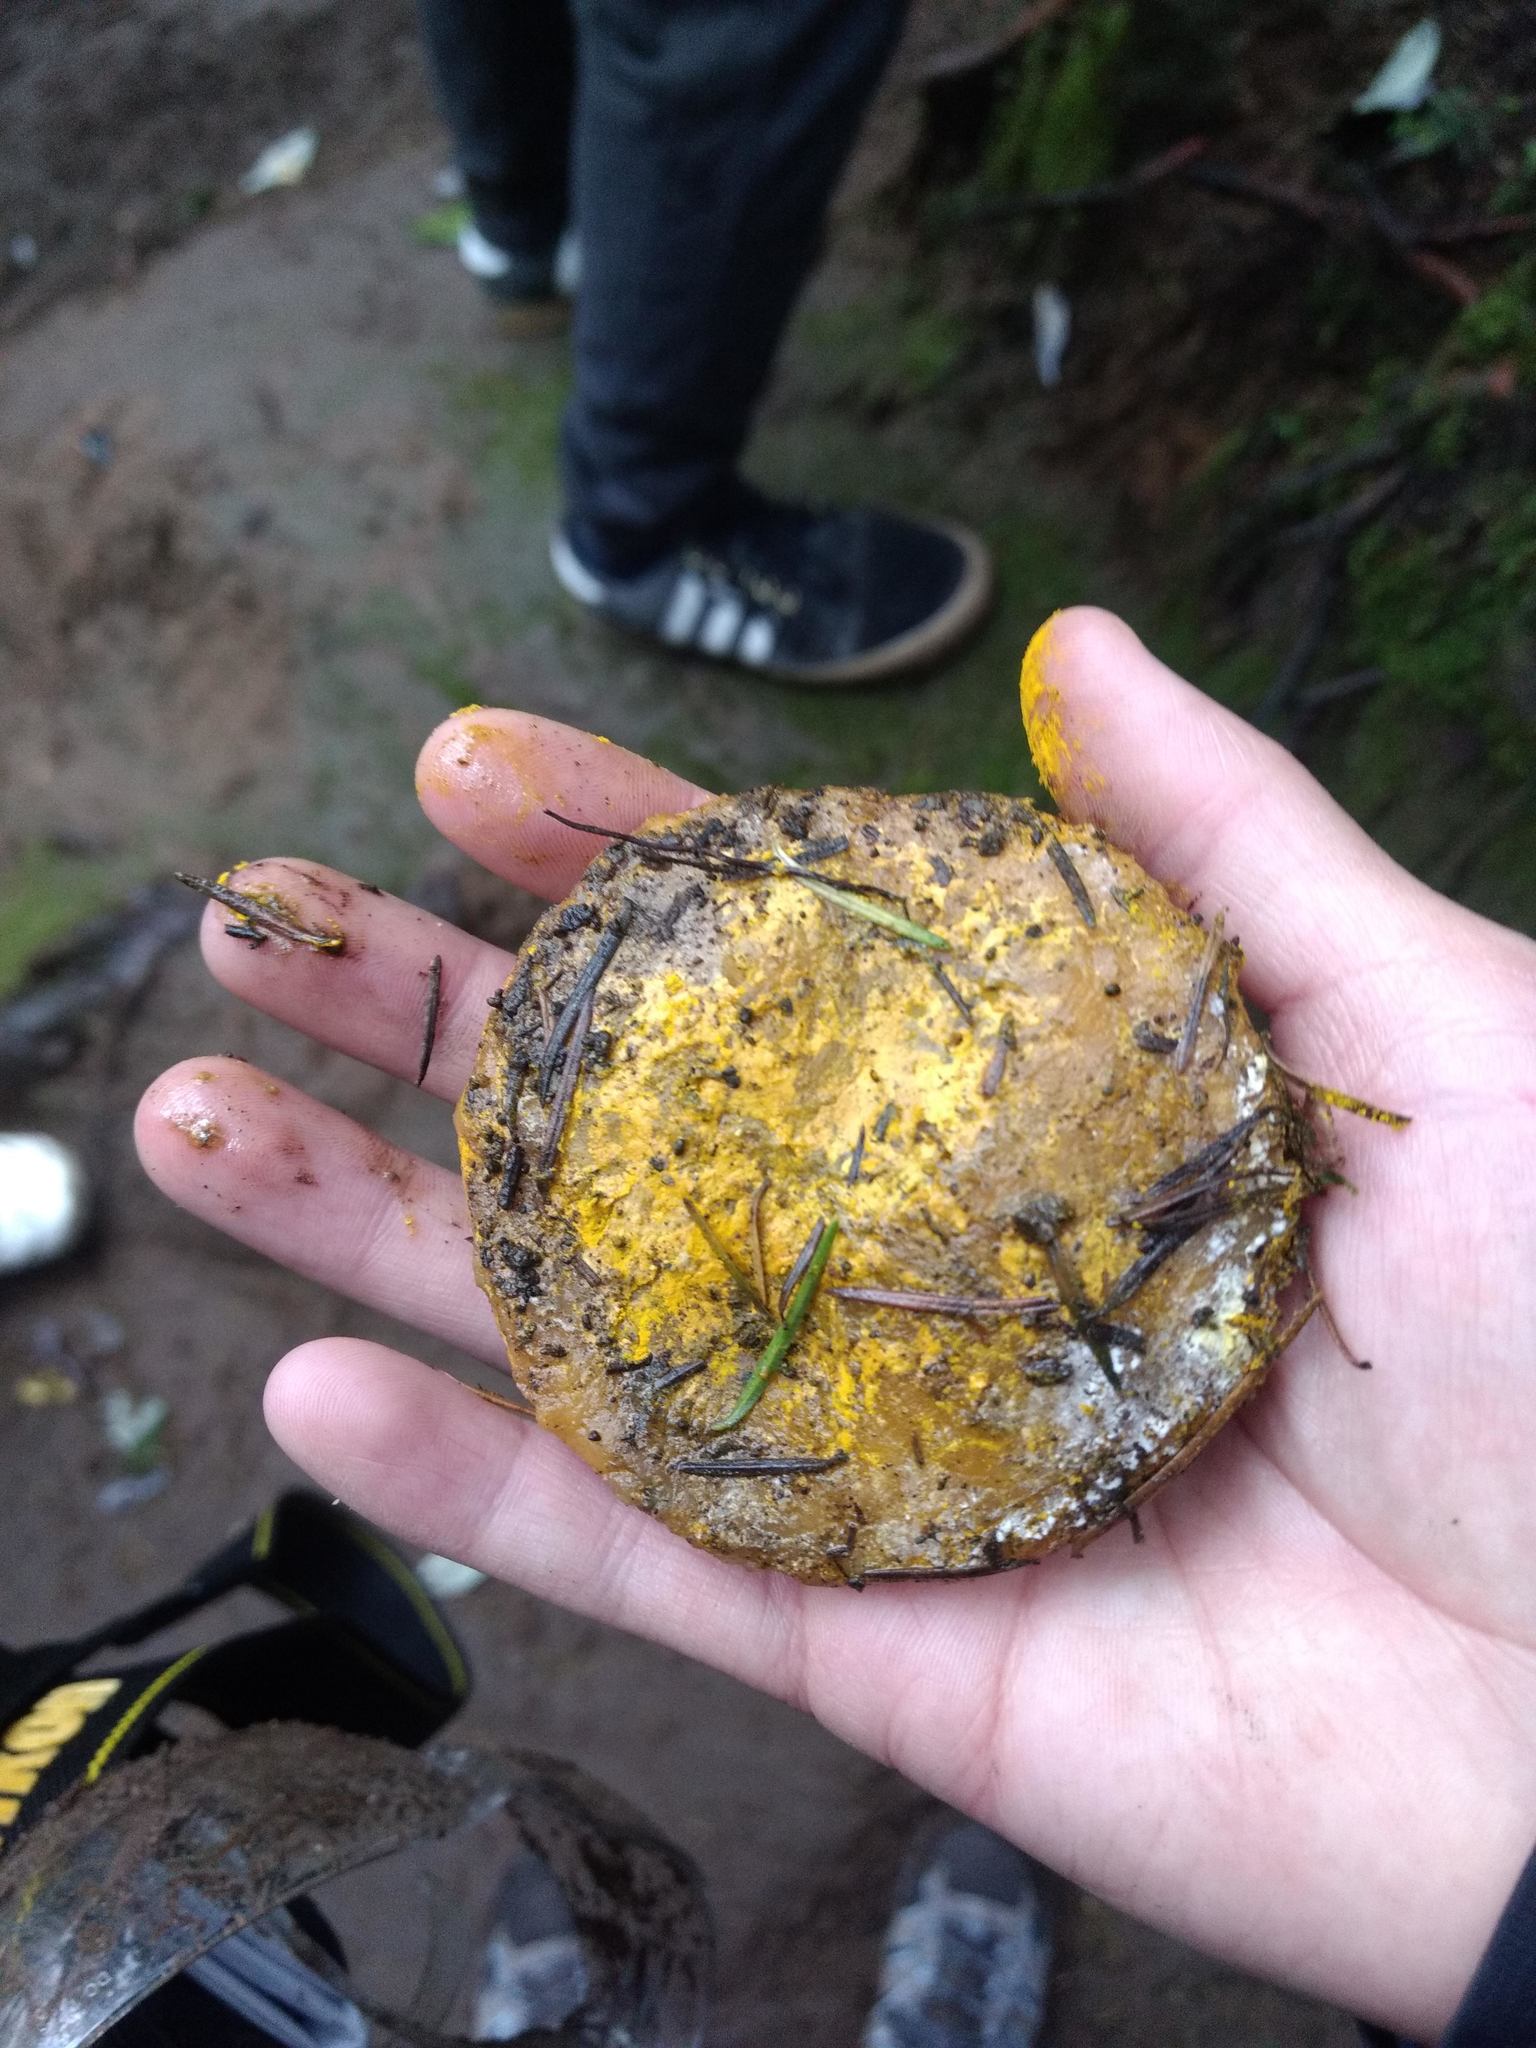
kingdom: Fungi
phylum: Ascomycota
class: Sordariomycetes
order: Hypocreales
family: Hypocreaceae
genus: Hypomyces
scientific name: Hypomyces microspermus
